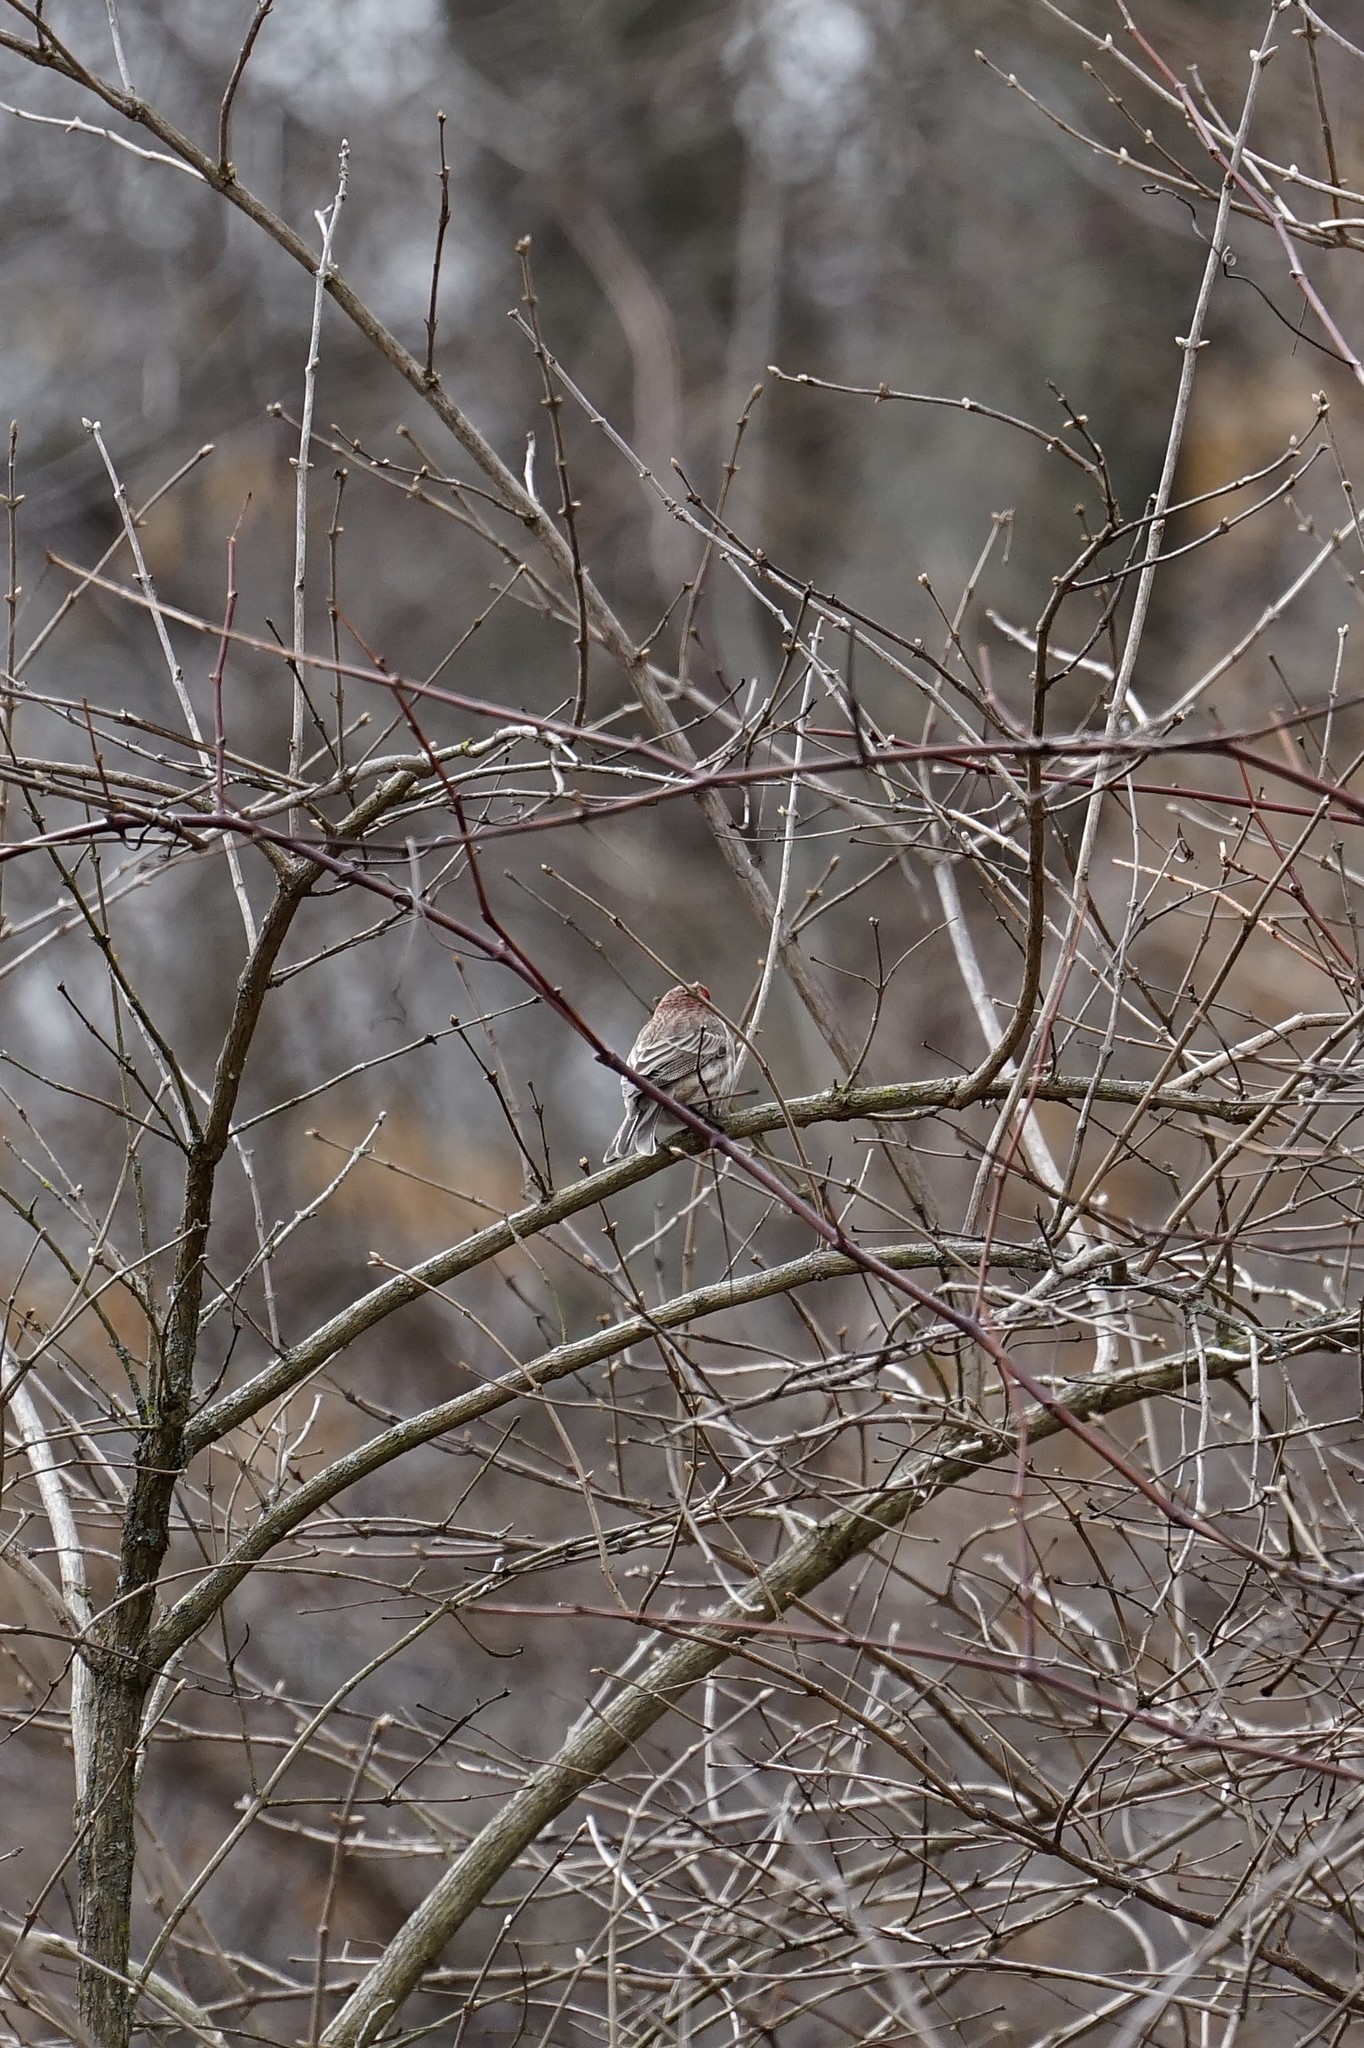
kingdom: Animalia
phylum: Chordata
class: Aves
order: Passeriformes
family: Fringillidae
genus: Haemorhous
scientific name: Haemorhous mexicanus
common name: House finch
